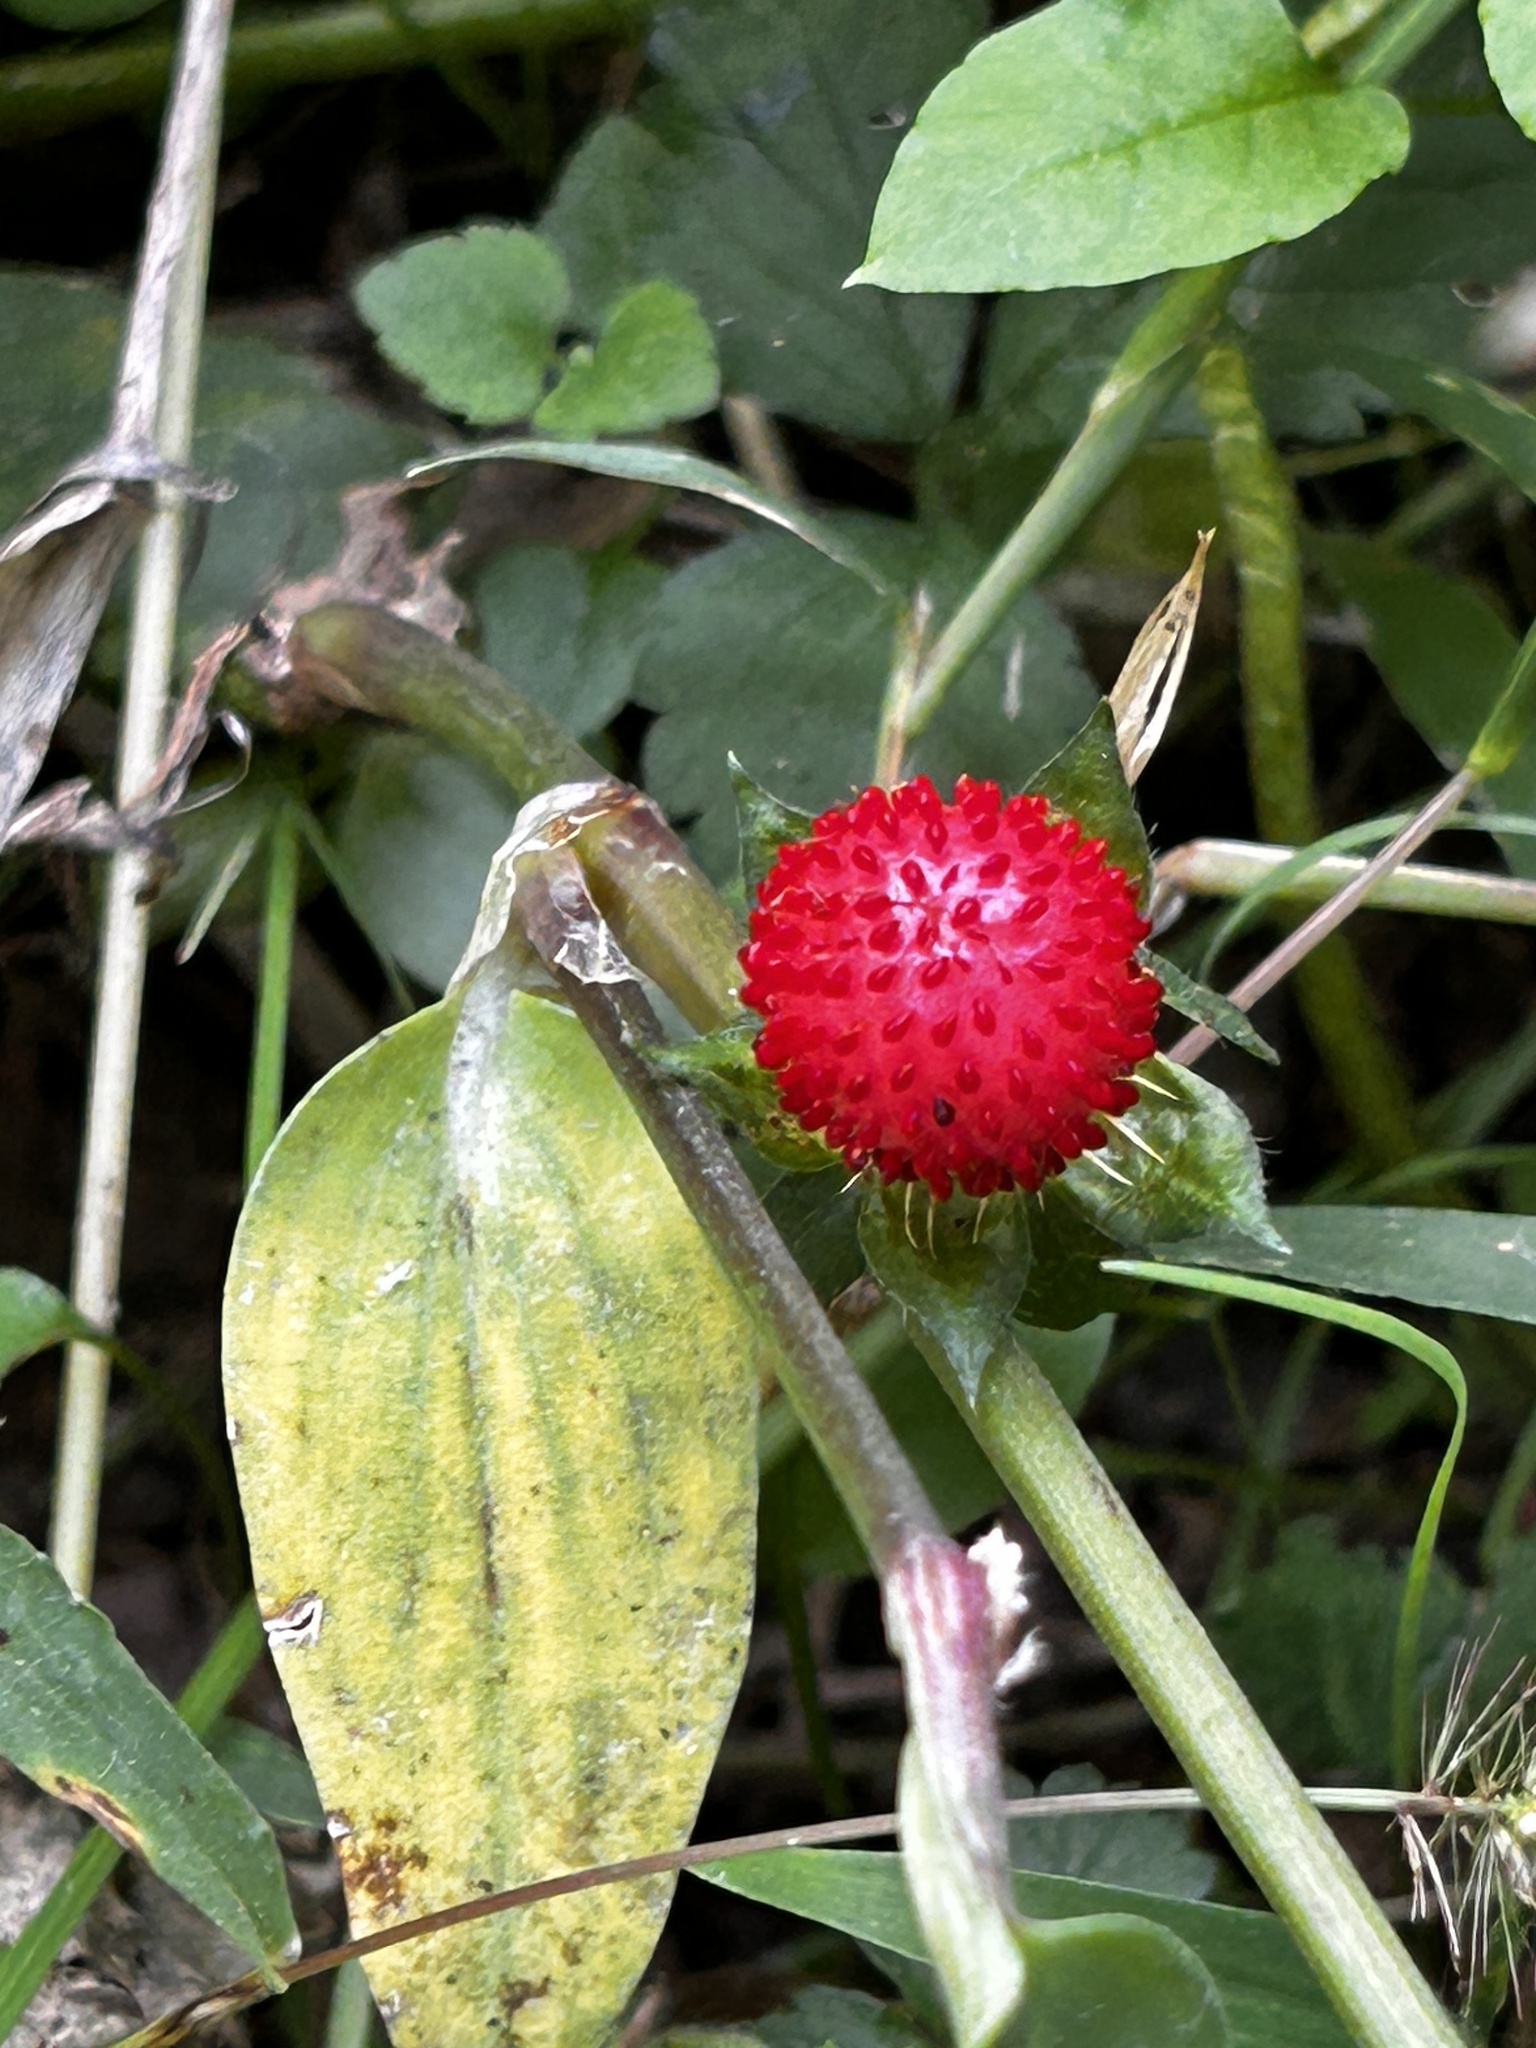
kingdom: Plantae
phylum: Tracheophyta
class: Magnoliopsida
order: Rosales
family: Rosaceae
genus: Potentilla
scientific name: Potentilla indica
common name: Yellow-flowered strawberry
